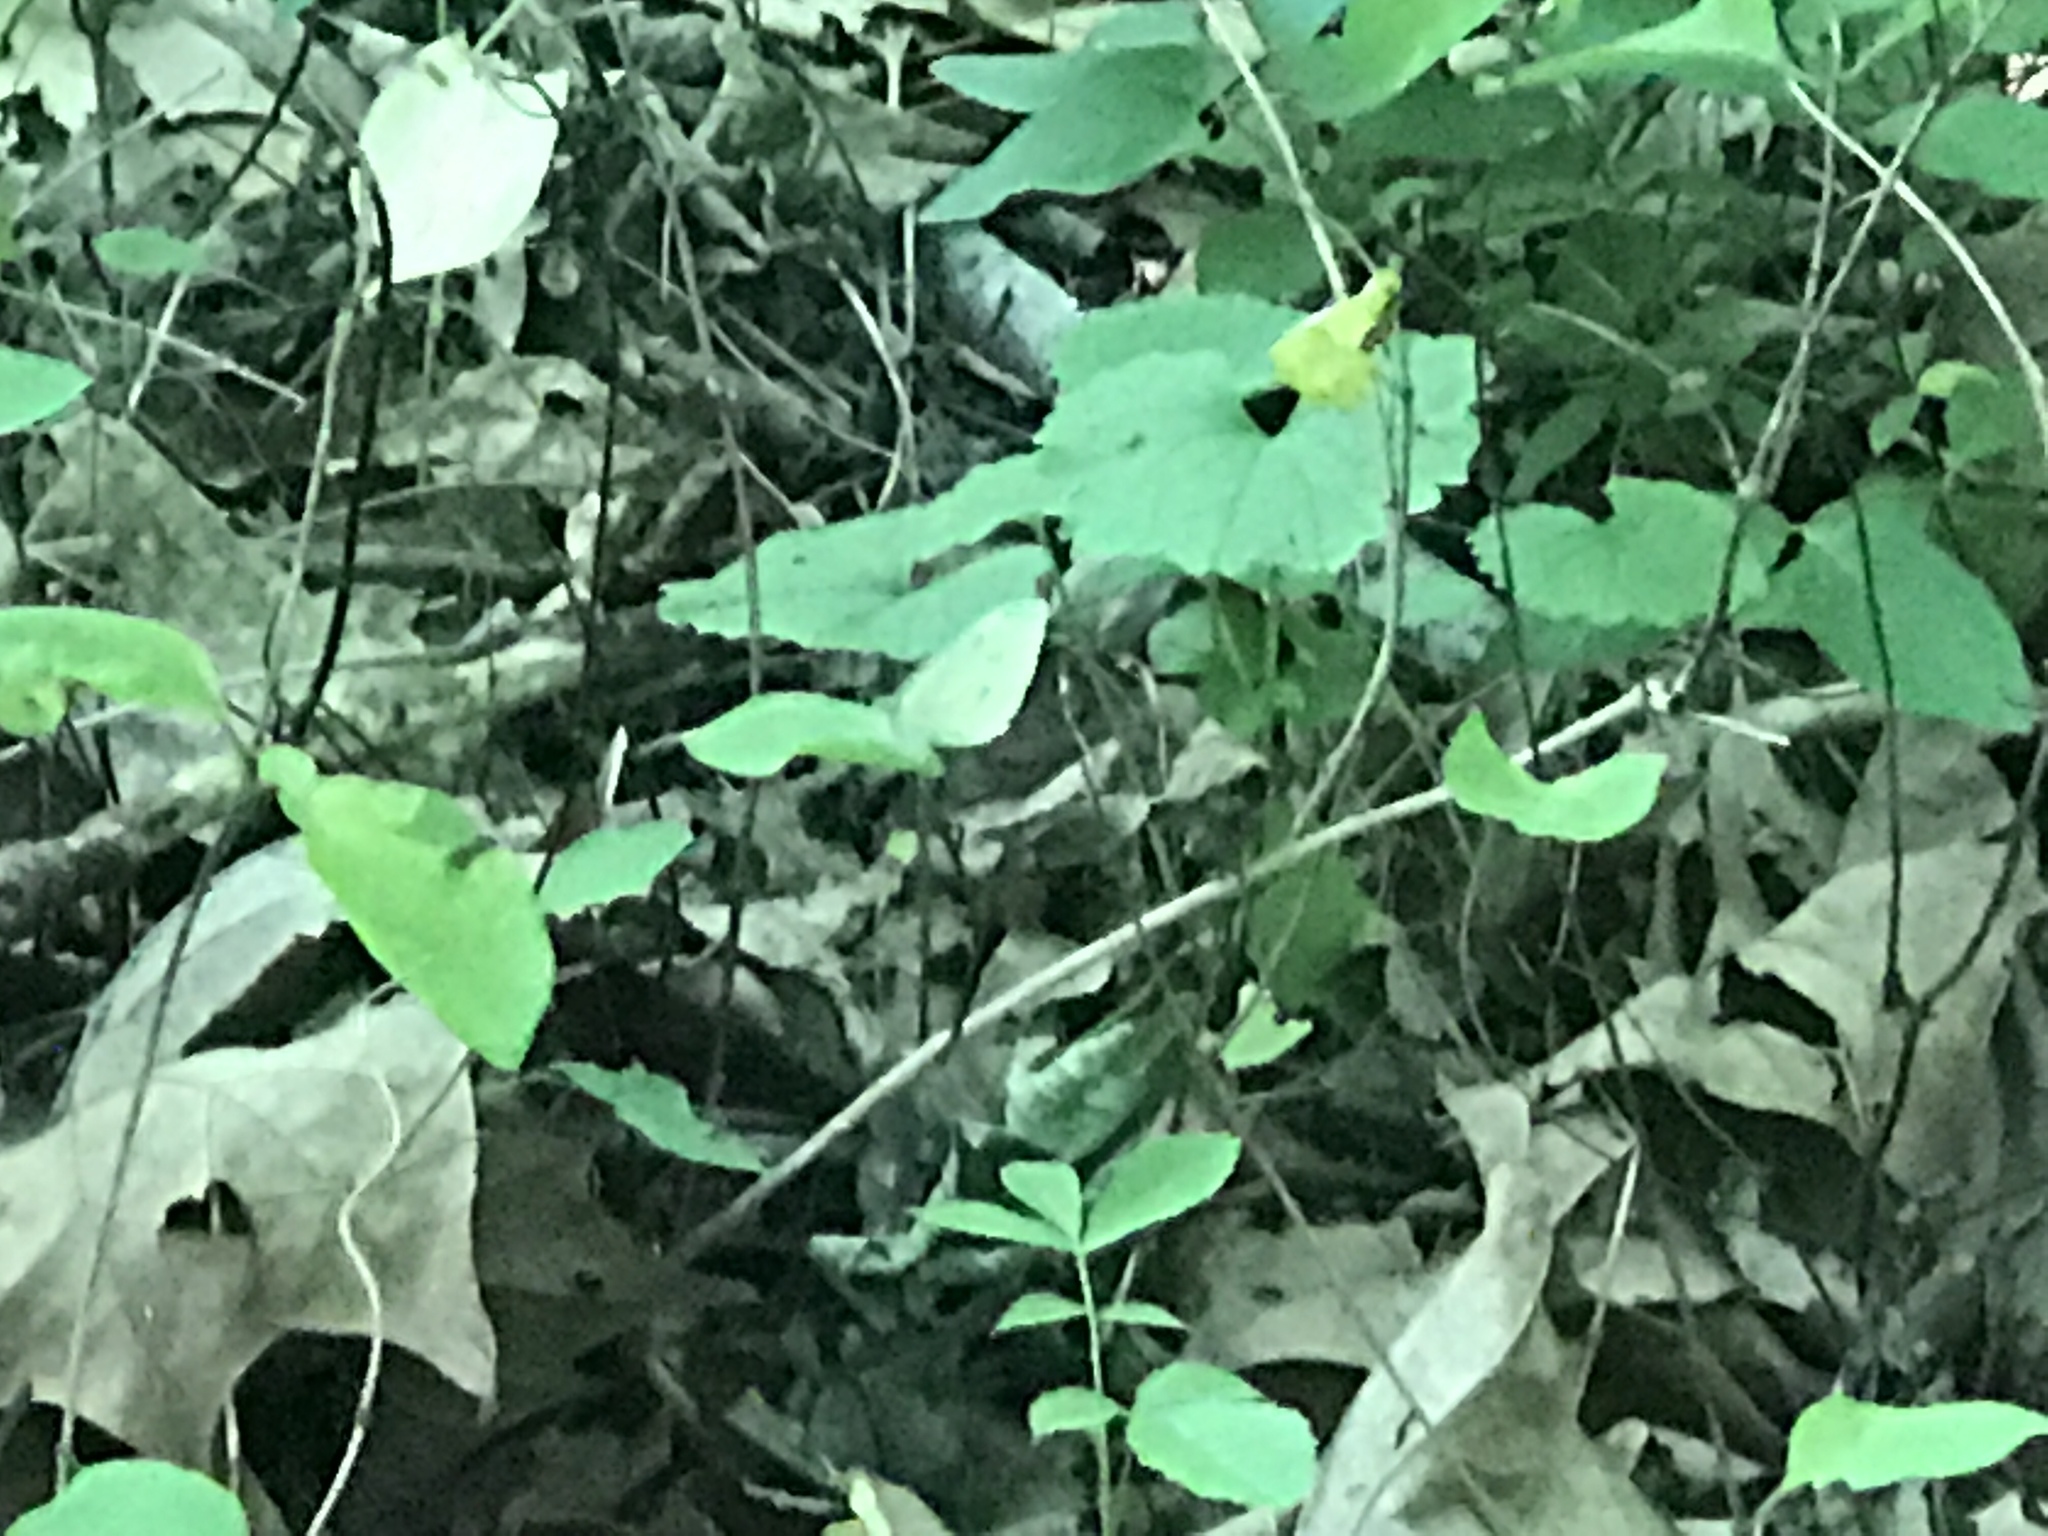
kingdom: Animalia
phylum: Arthropoda
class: Insecta
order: Lepidoptera
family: Pieridae
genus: Pieris
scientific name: Pieris rapae
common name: Small white
